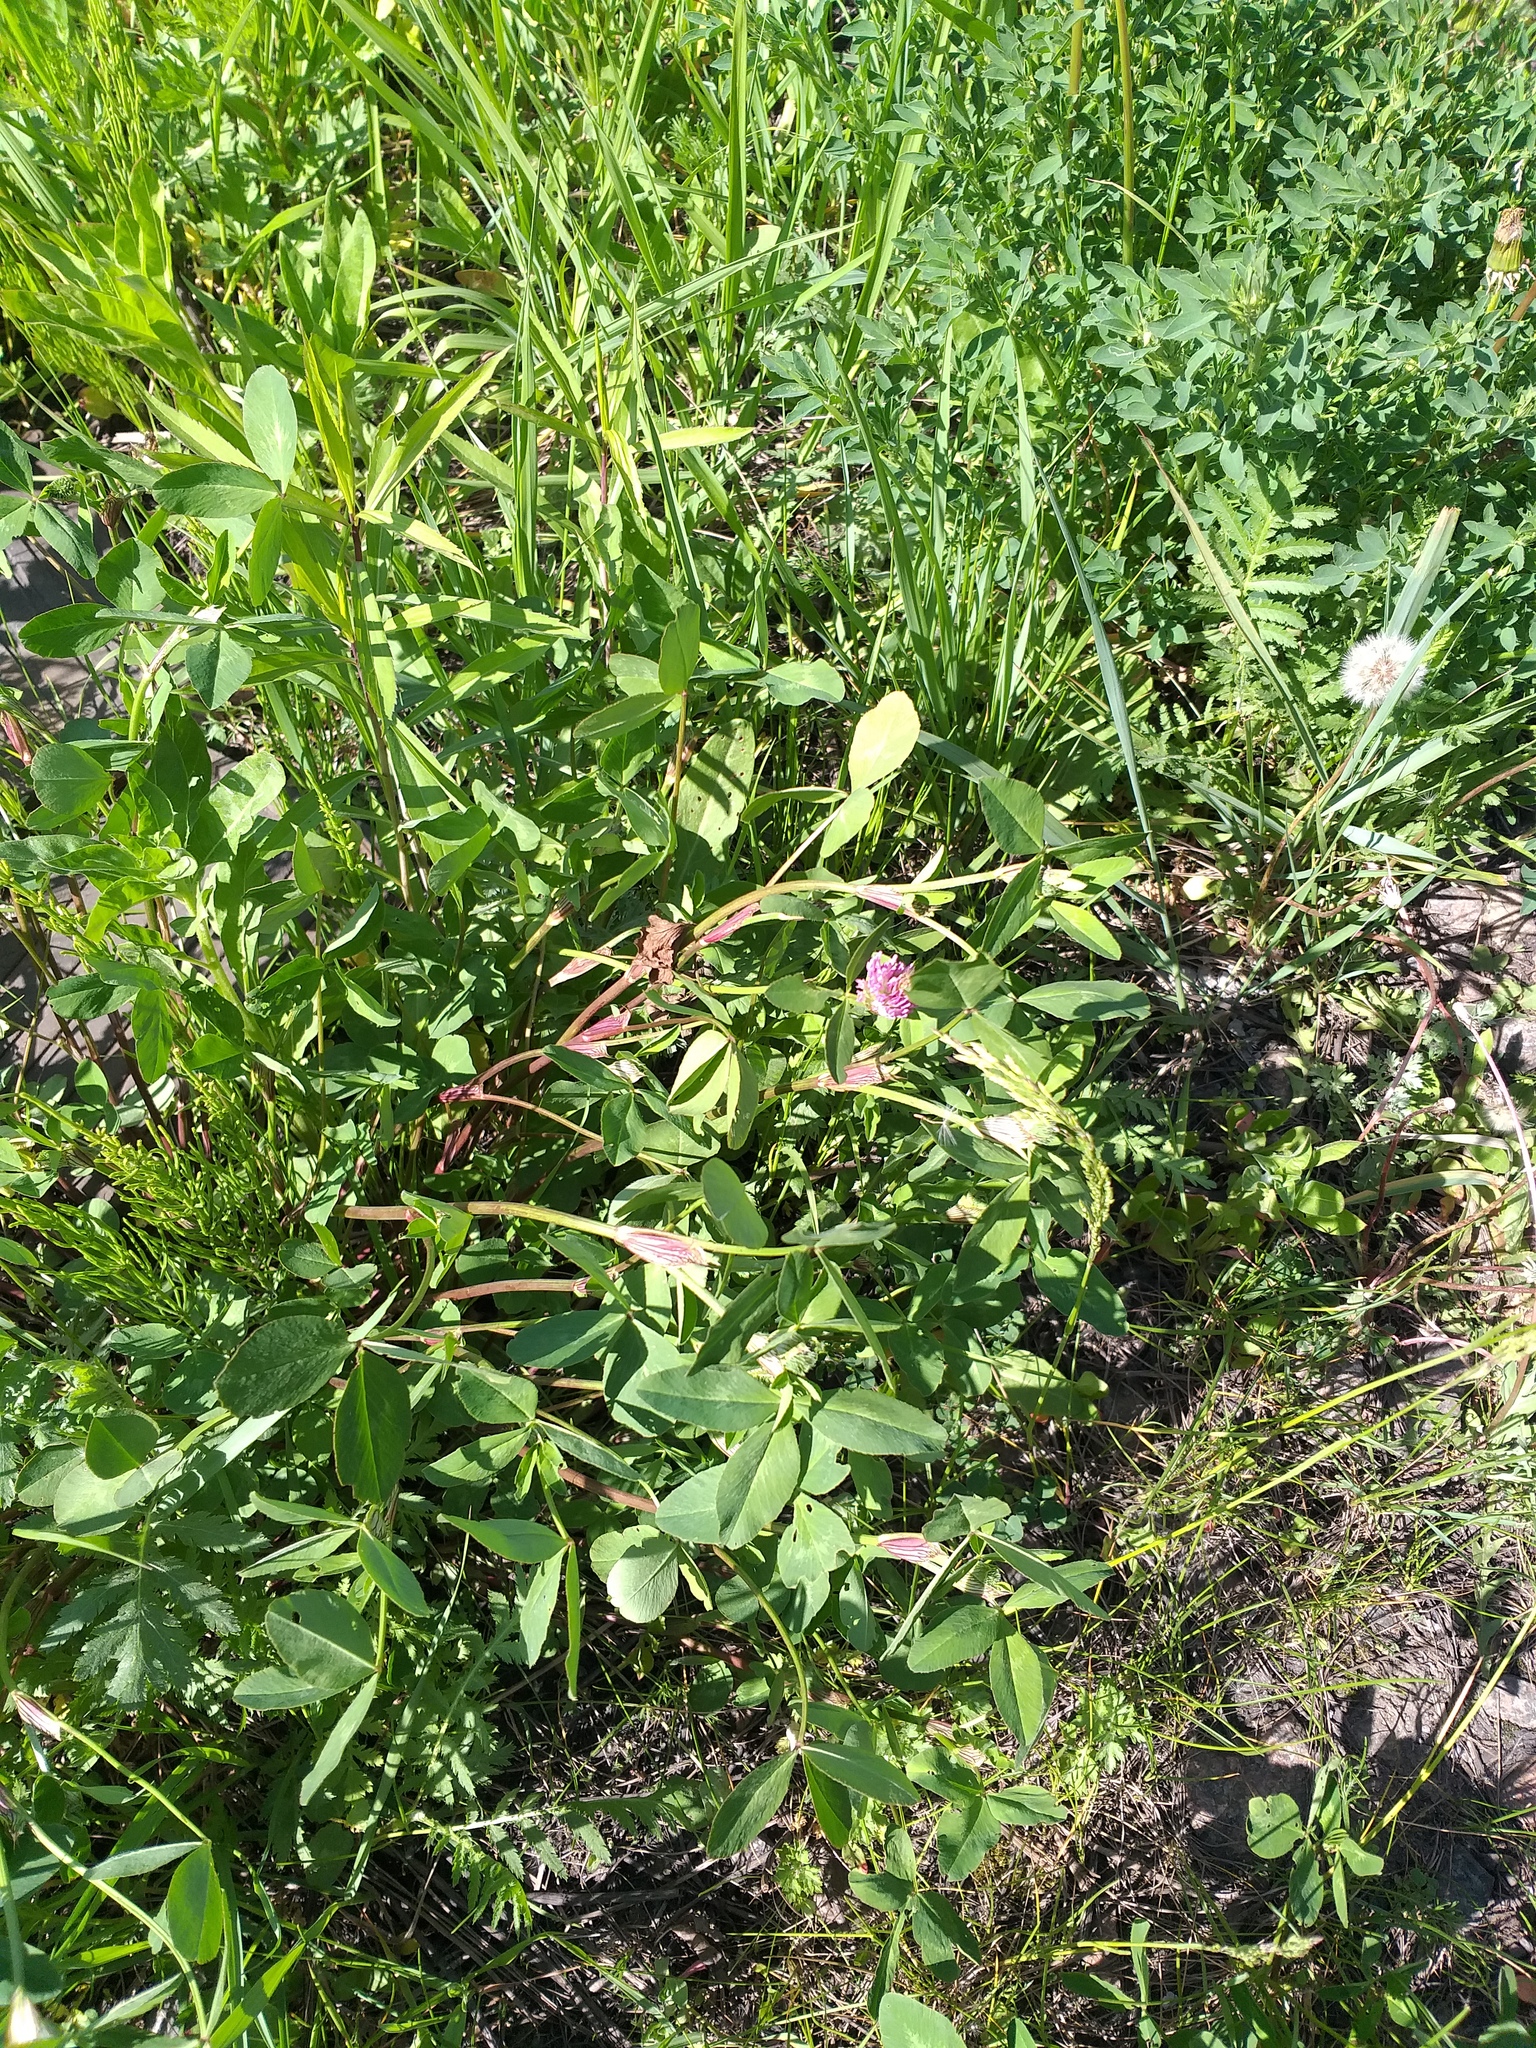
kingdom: Plantae
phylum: Tracheophyta
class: Magnoliopsida
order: Fabales
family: Fabaceae
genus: Trifolium
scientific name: Trifolium pratense
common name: Red clover
